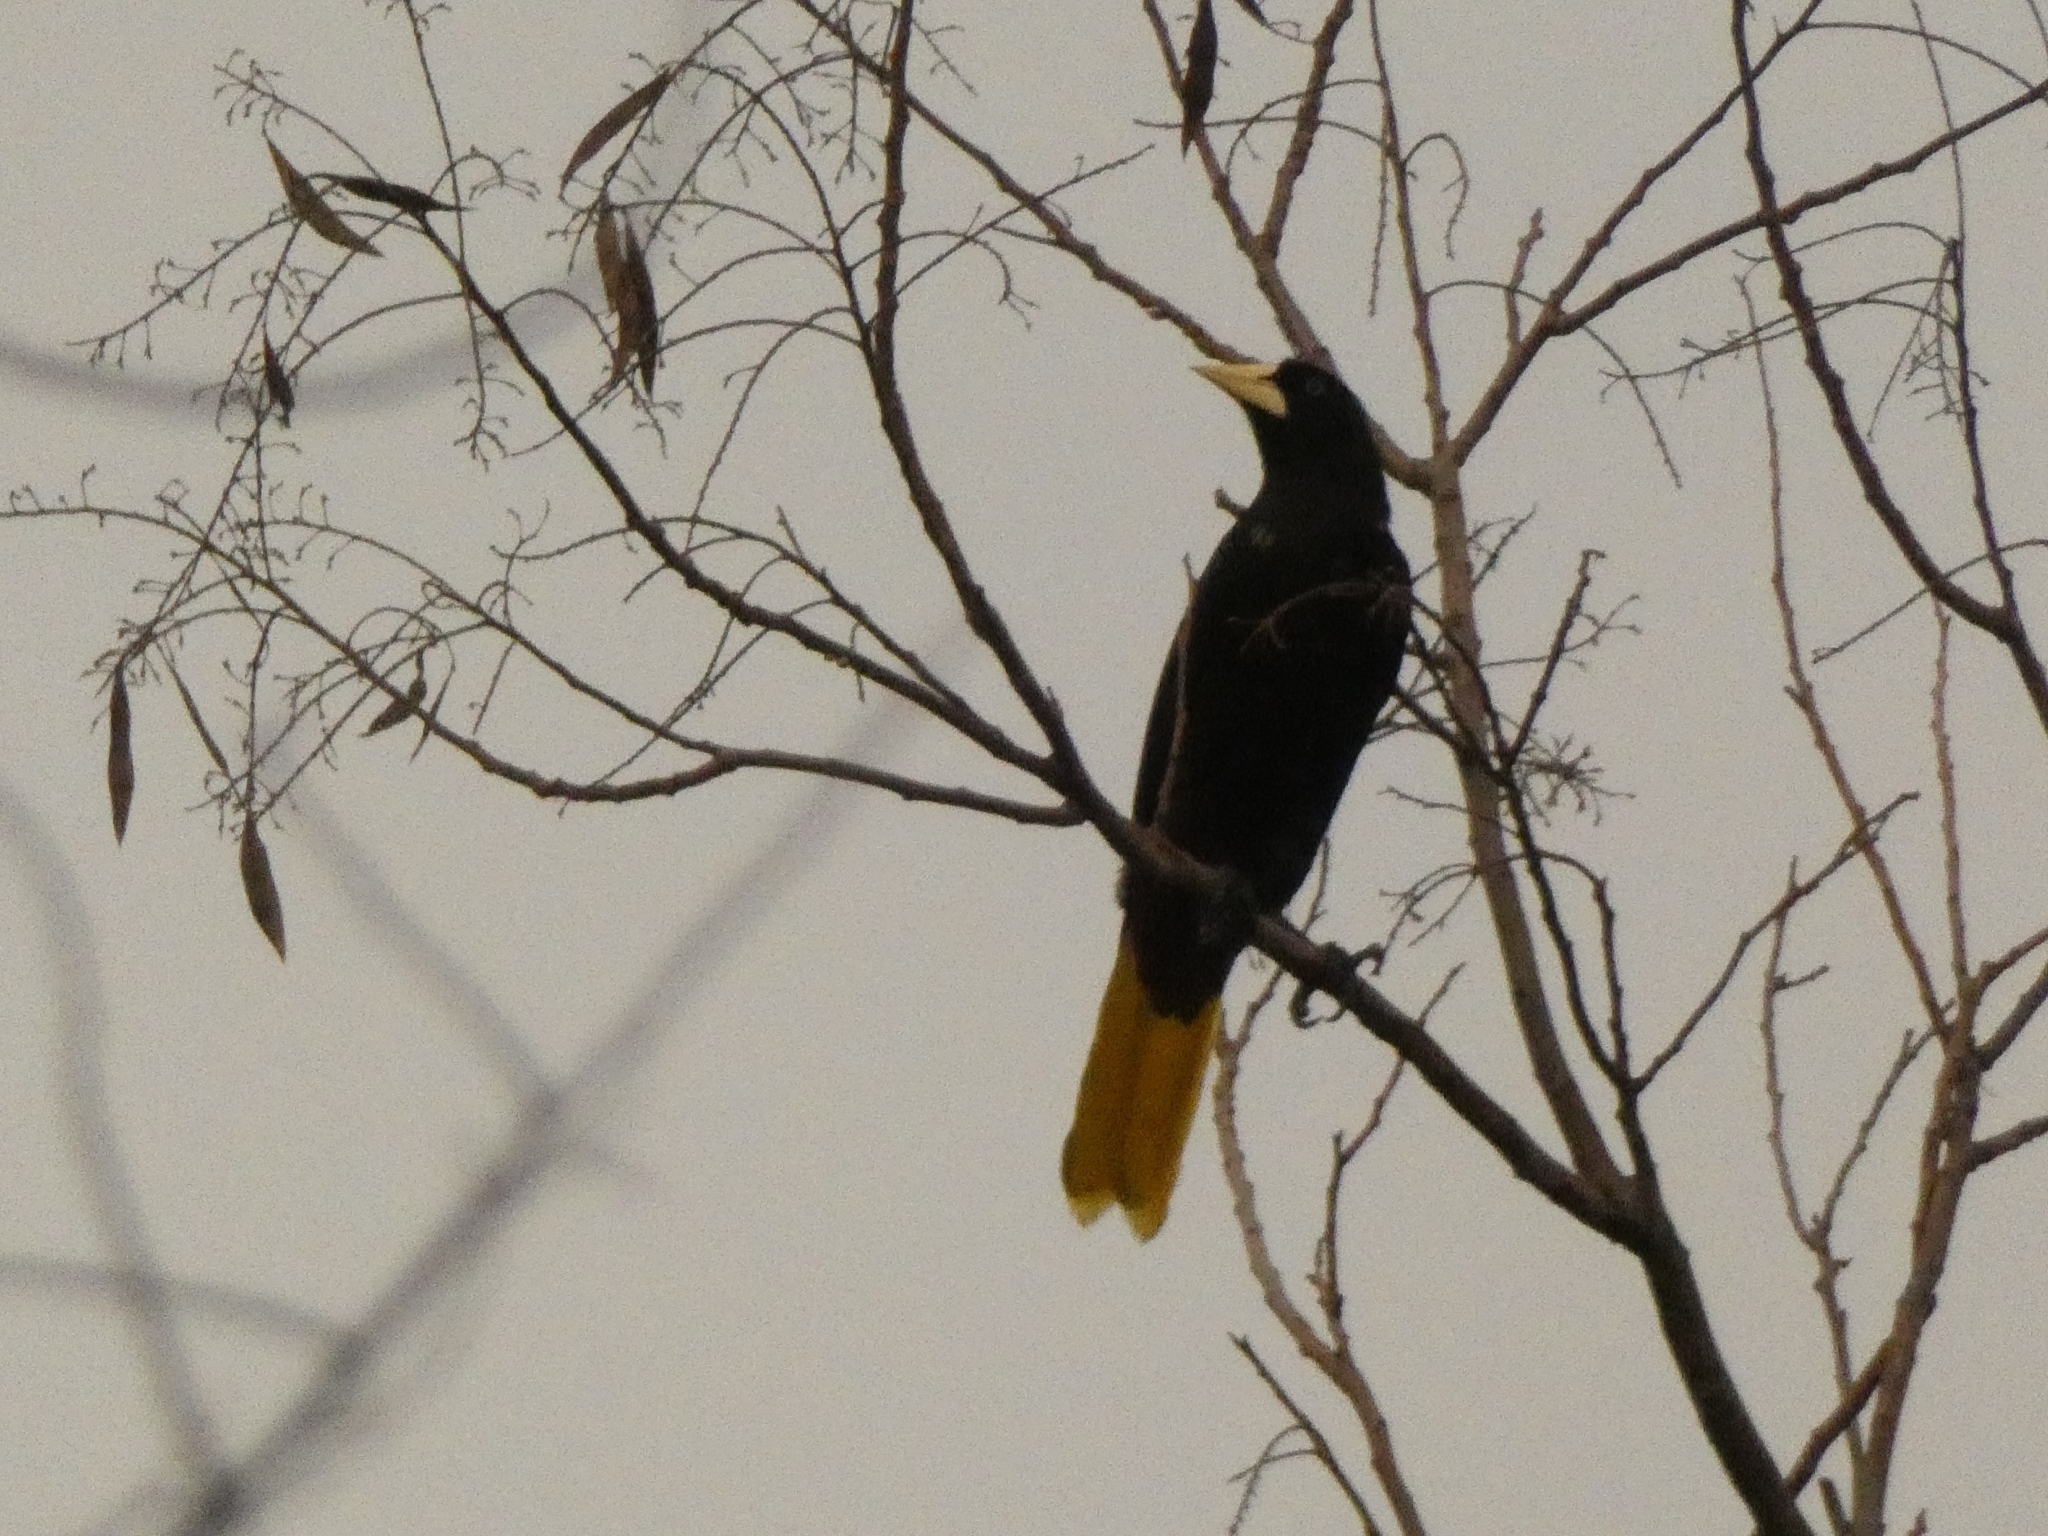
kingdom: Animalia
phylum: Chordata
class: Aves
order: Passeriformes
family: Icteridae
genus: Psarocolius
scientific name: Psarocolius decumanus
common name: Crested oropendola
